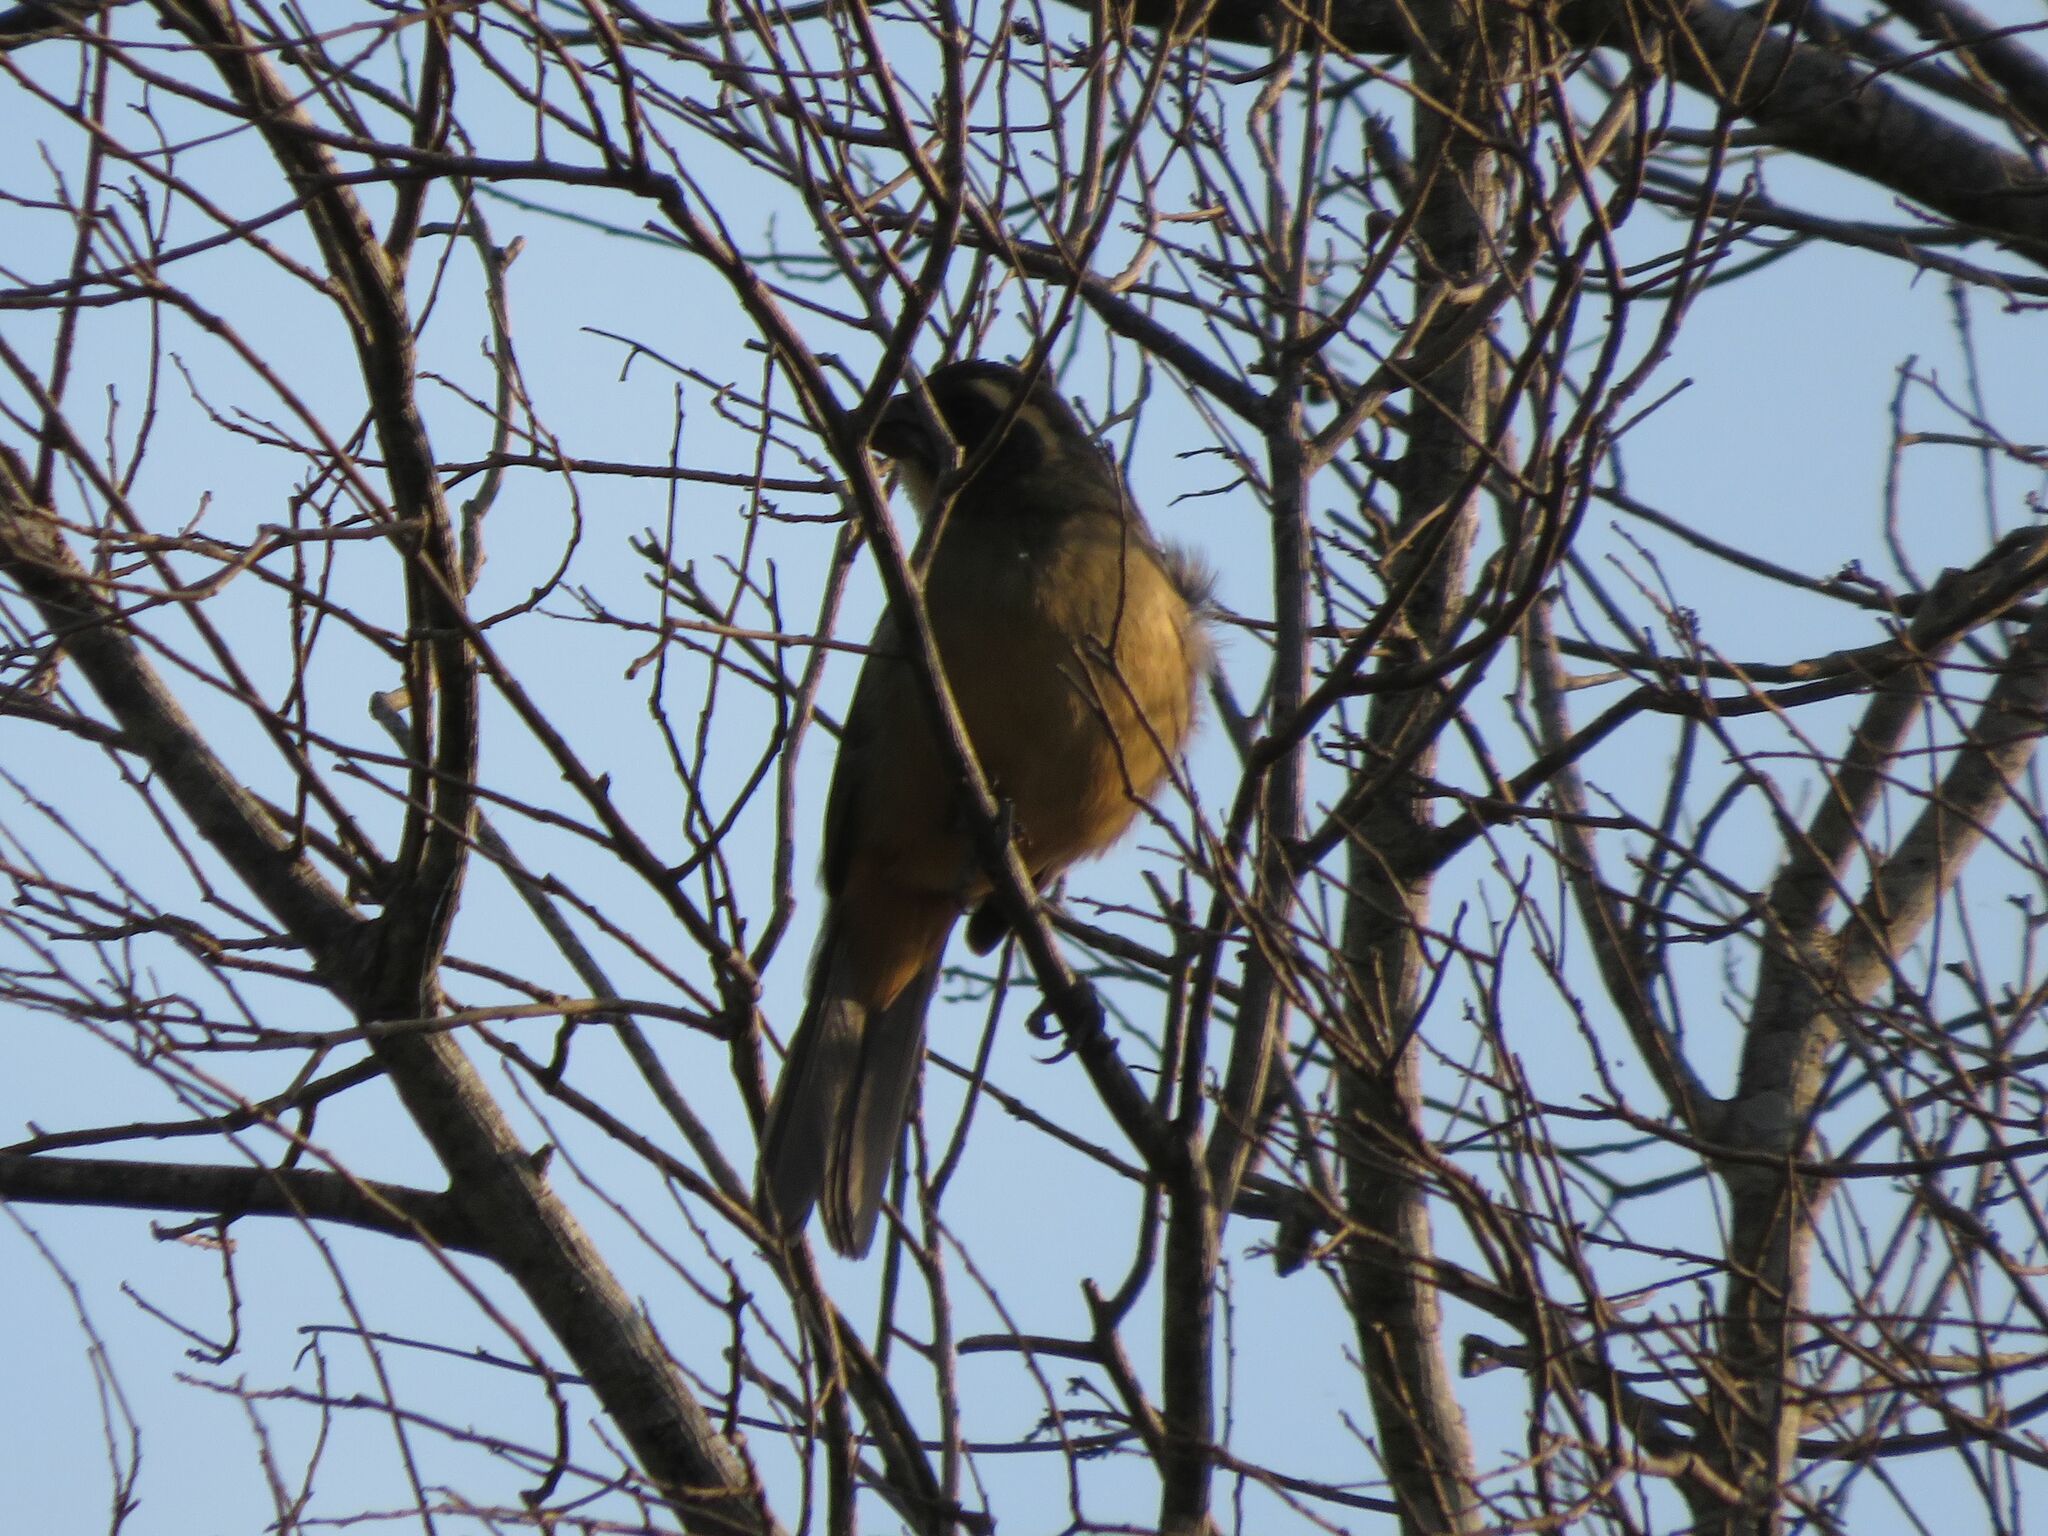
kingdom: Animalia
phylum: Chordata
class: Aves
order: Passeriformes
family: Thraupidae
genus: Saltator
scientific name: Saltator aurantiirostris
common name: Golden-billed saltator
